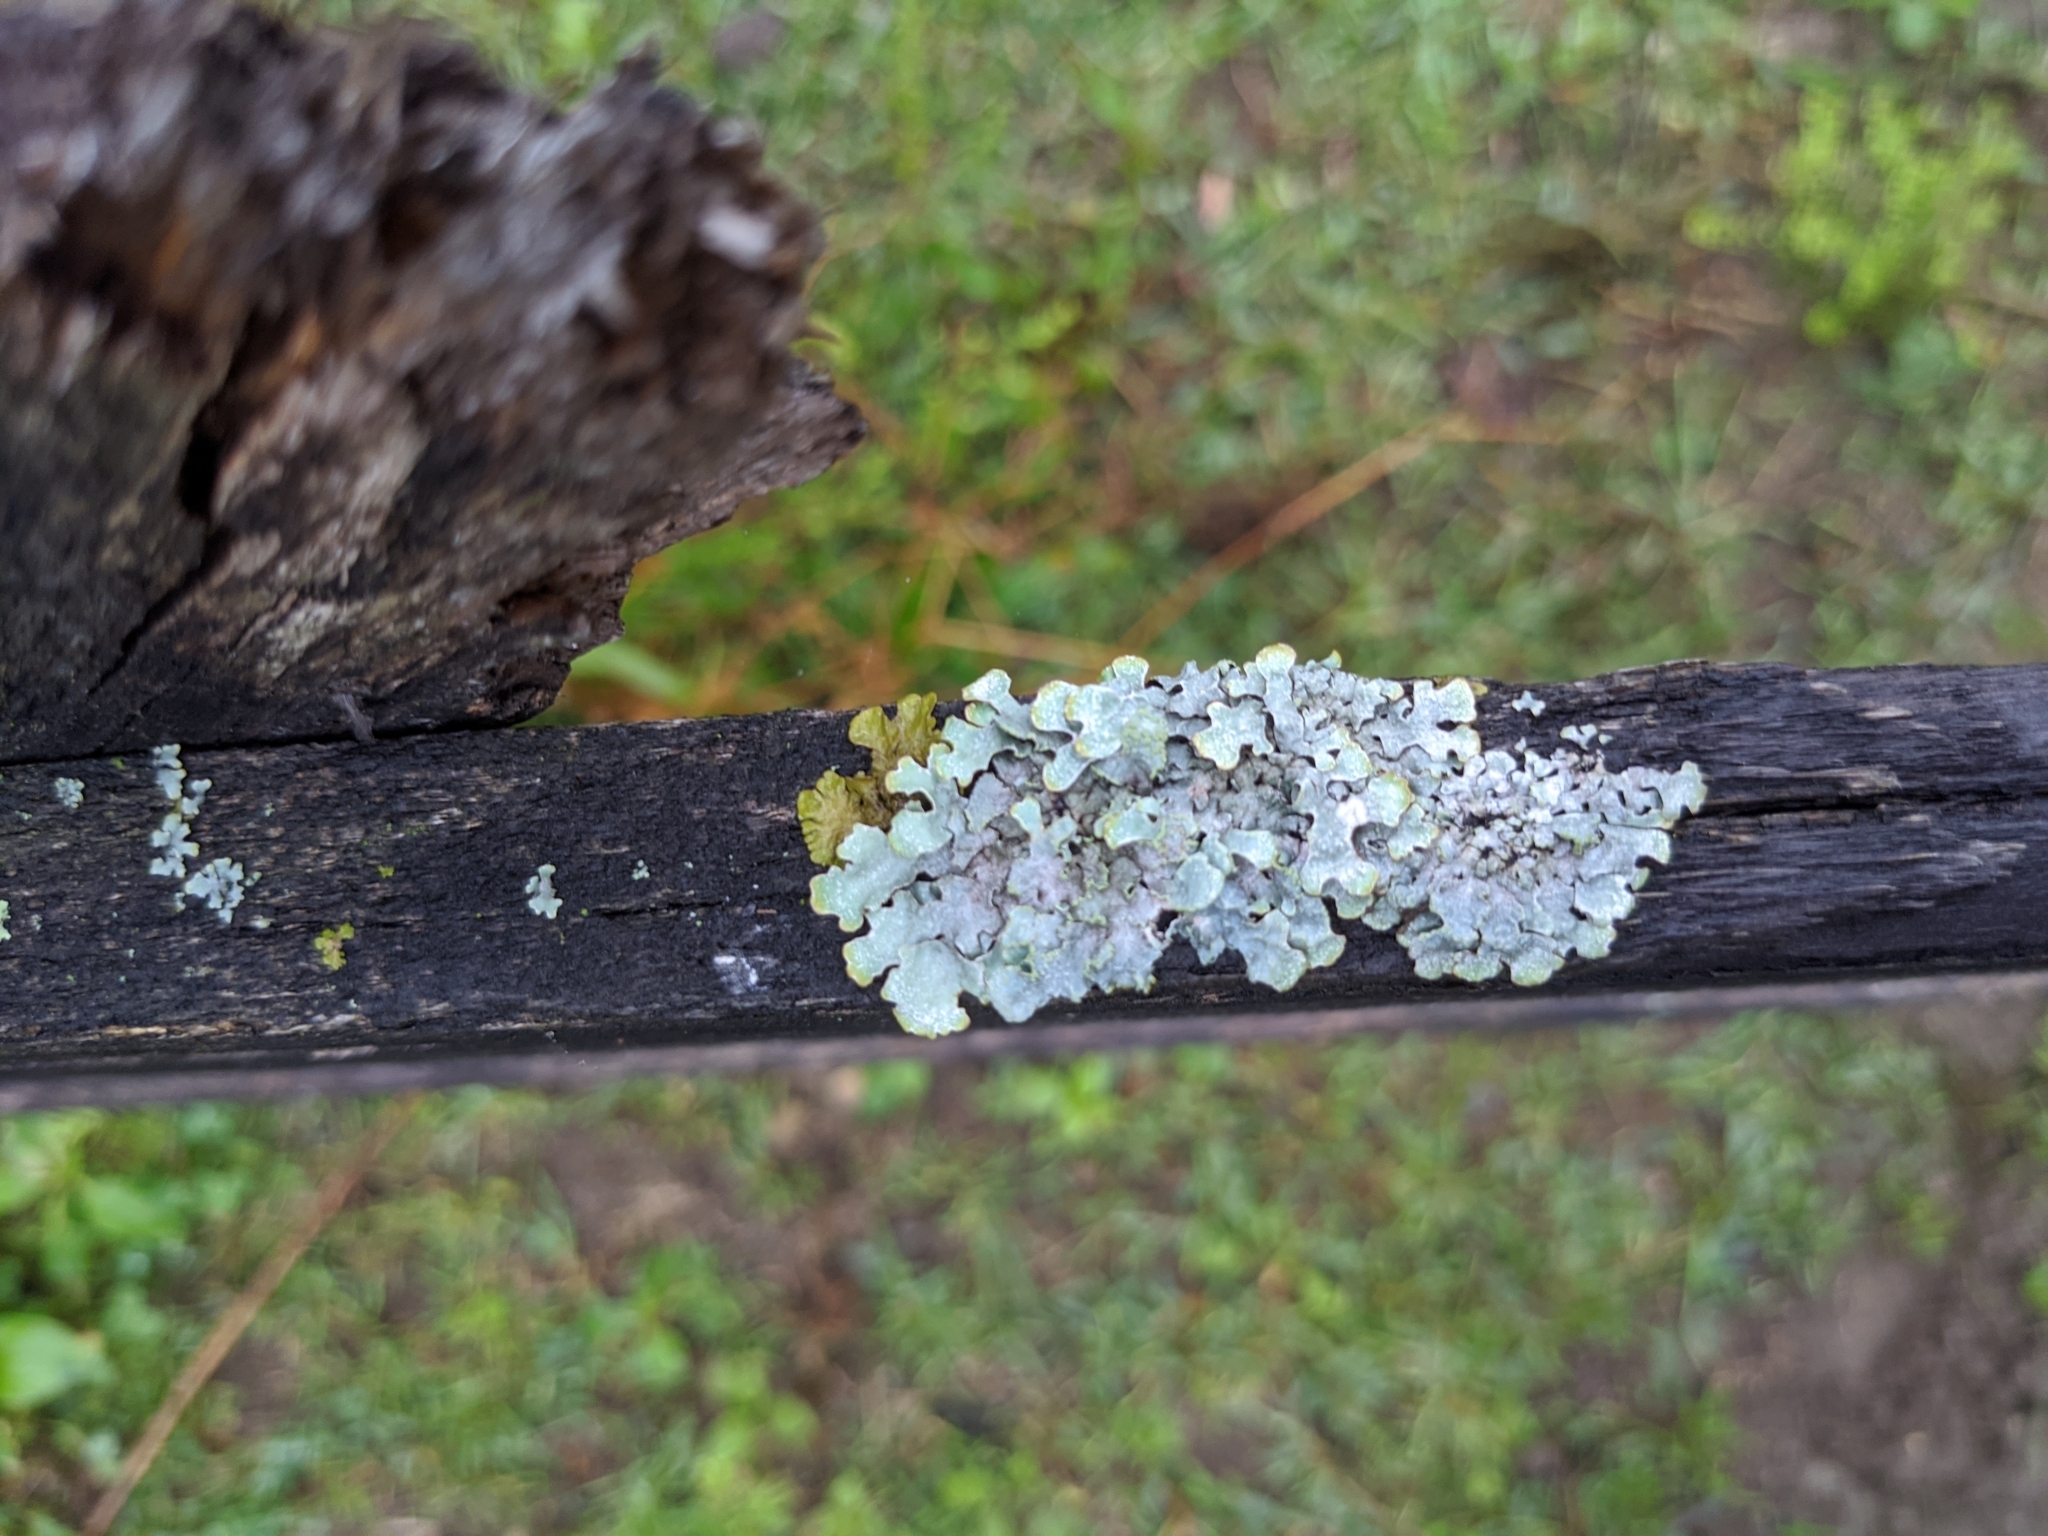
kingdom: Fungi
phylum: Ascomycota
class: Lecanoromycetes
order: Lecanorales
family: Parmeliaceae
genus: Parmelia
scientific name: Parmelia sulcata
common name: Netted shield lichen
